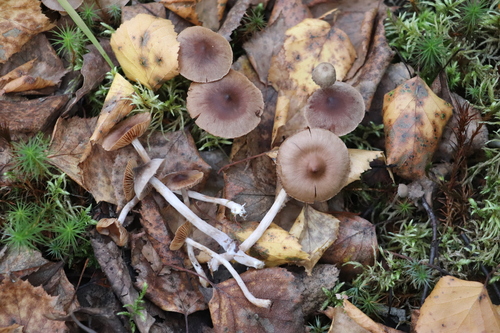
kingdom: Fungi
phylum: Basidiomycota
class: Agaricomycetes
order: Agaricales
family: Cortinariaceae
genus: Cortinarius
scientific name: Cortinarius
